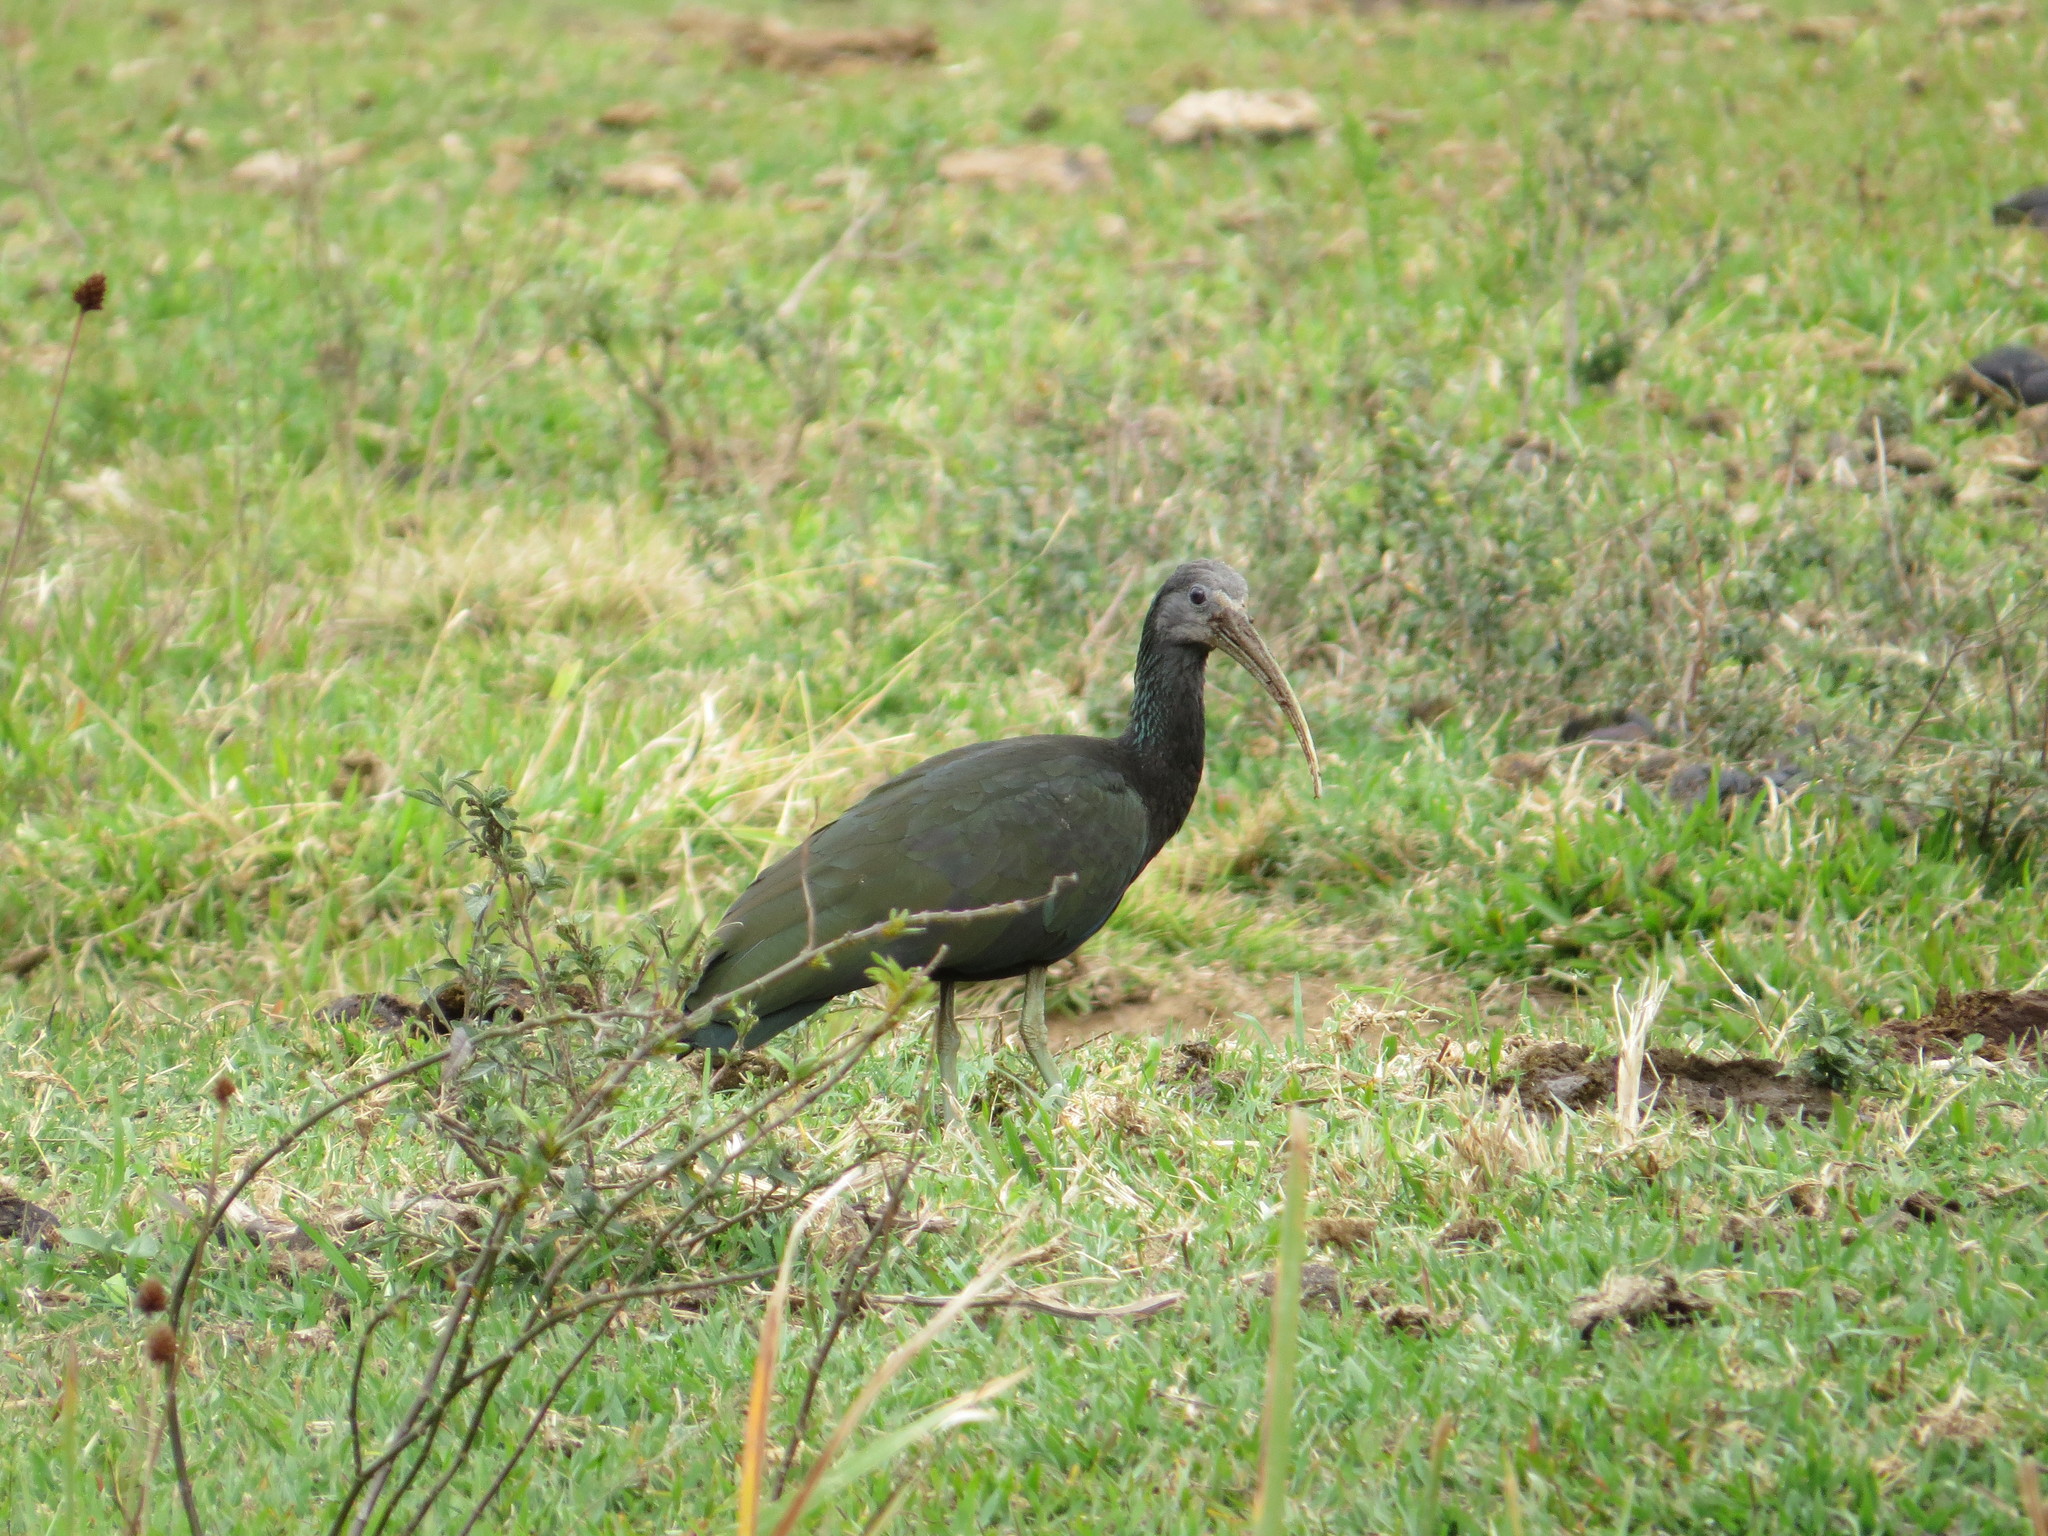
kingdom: Animalia
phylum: Chordata
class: Aves
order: Pelecaniformes
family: Threskiornithidae
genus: Mesembrinibis
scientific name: Mesembrinibis cayennensis
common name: Green ibis
